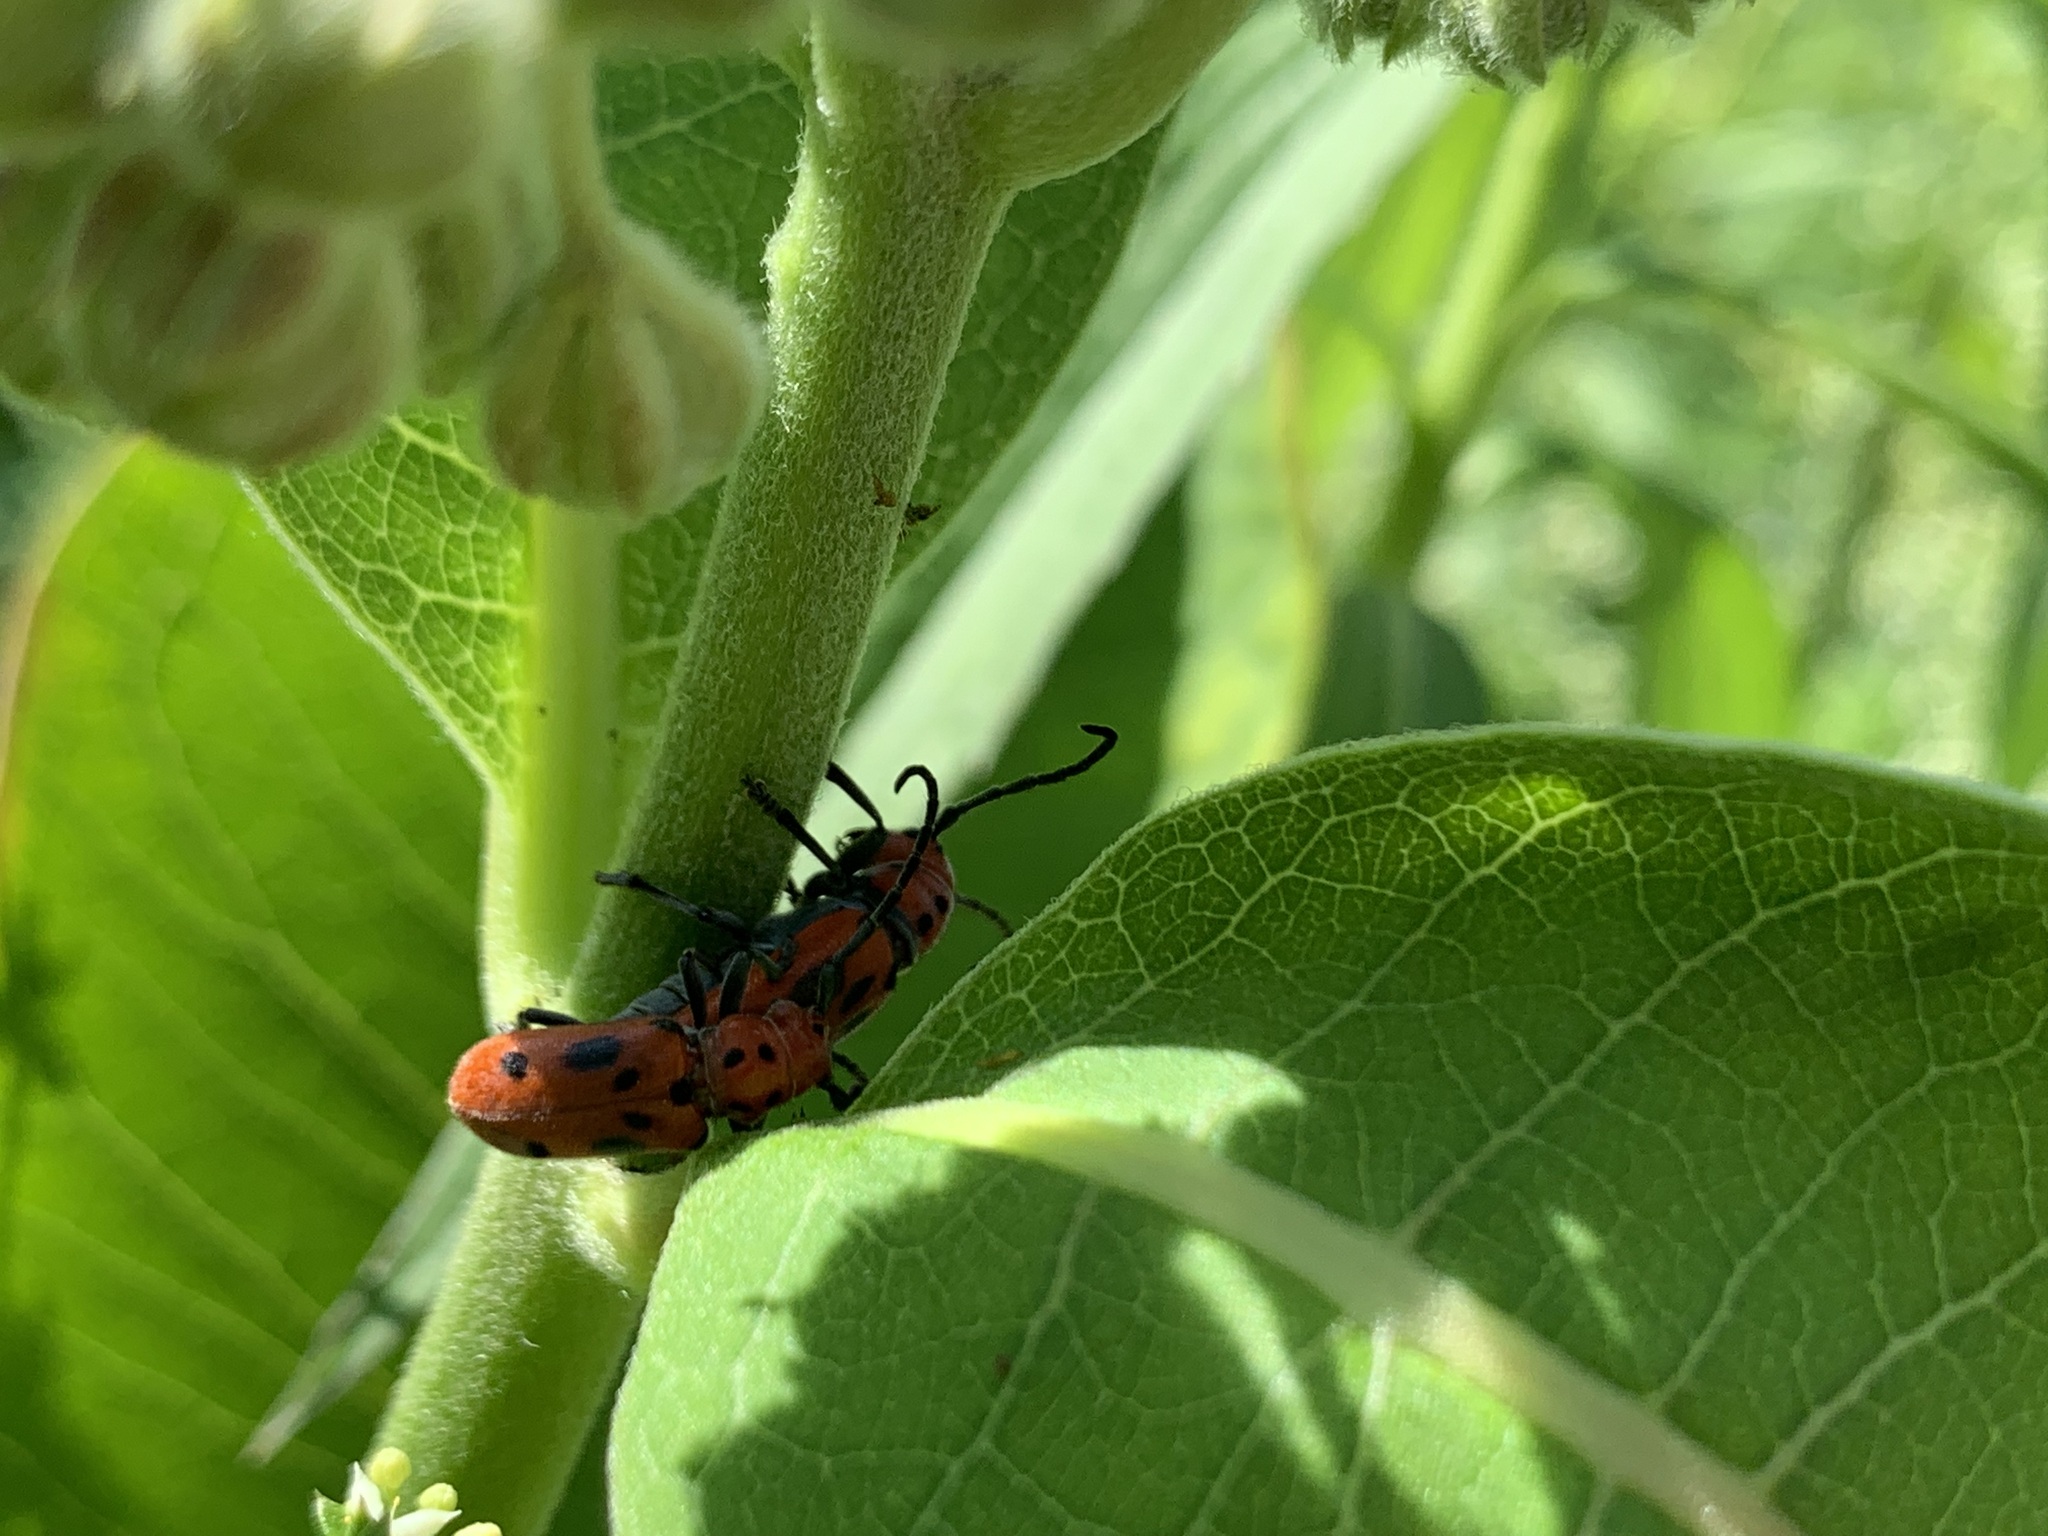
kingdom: Animalia
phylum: Arthropoda
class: Insecta
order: Coleoptera
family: Cerambycidae
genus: Tetraopes
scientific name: Tetraopes tetrophthalmus
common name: Red milkweed beetle
